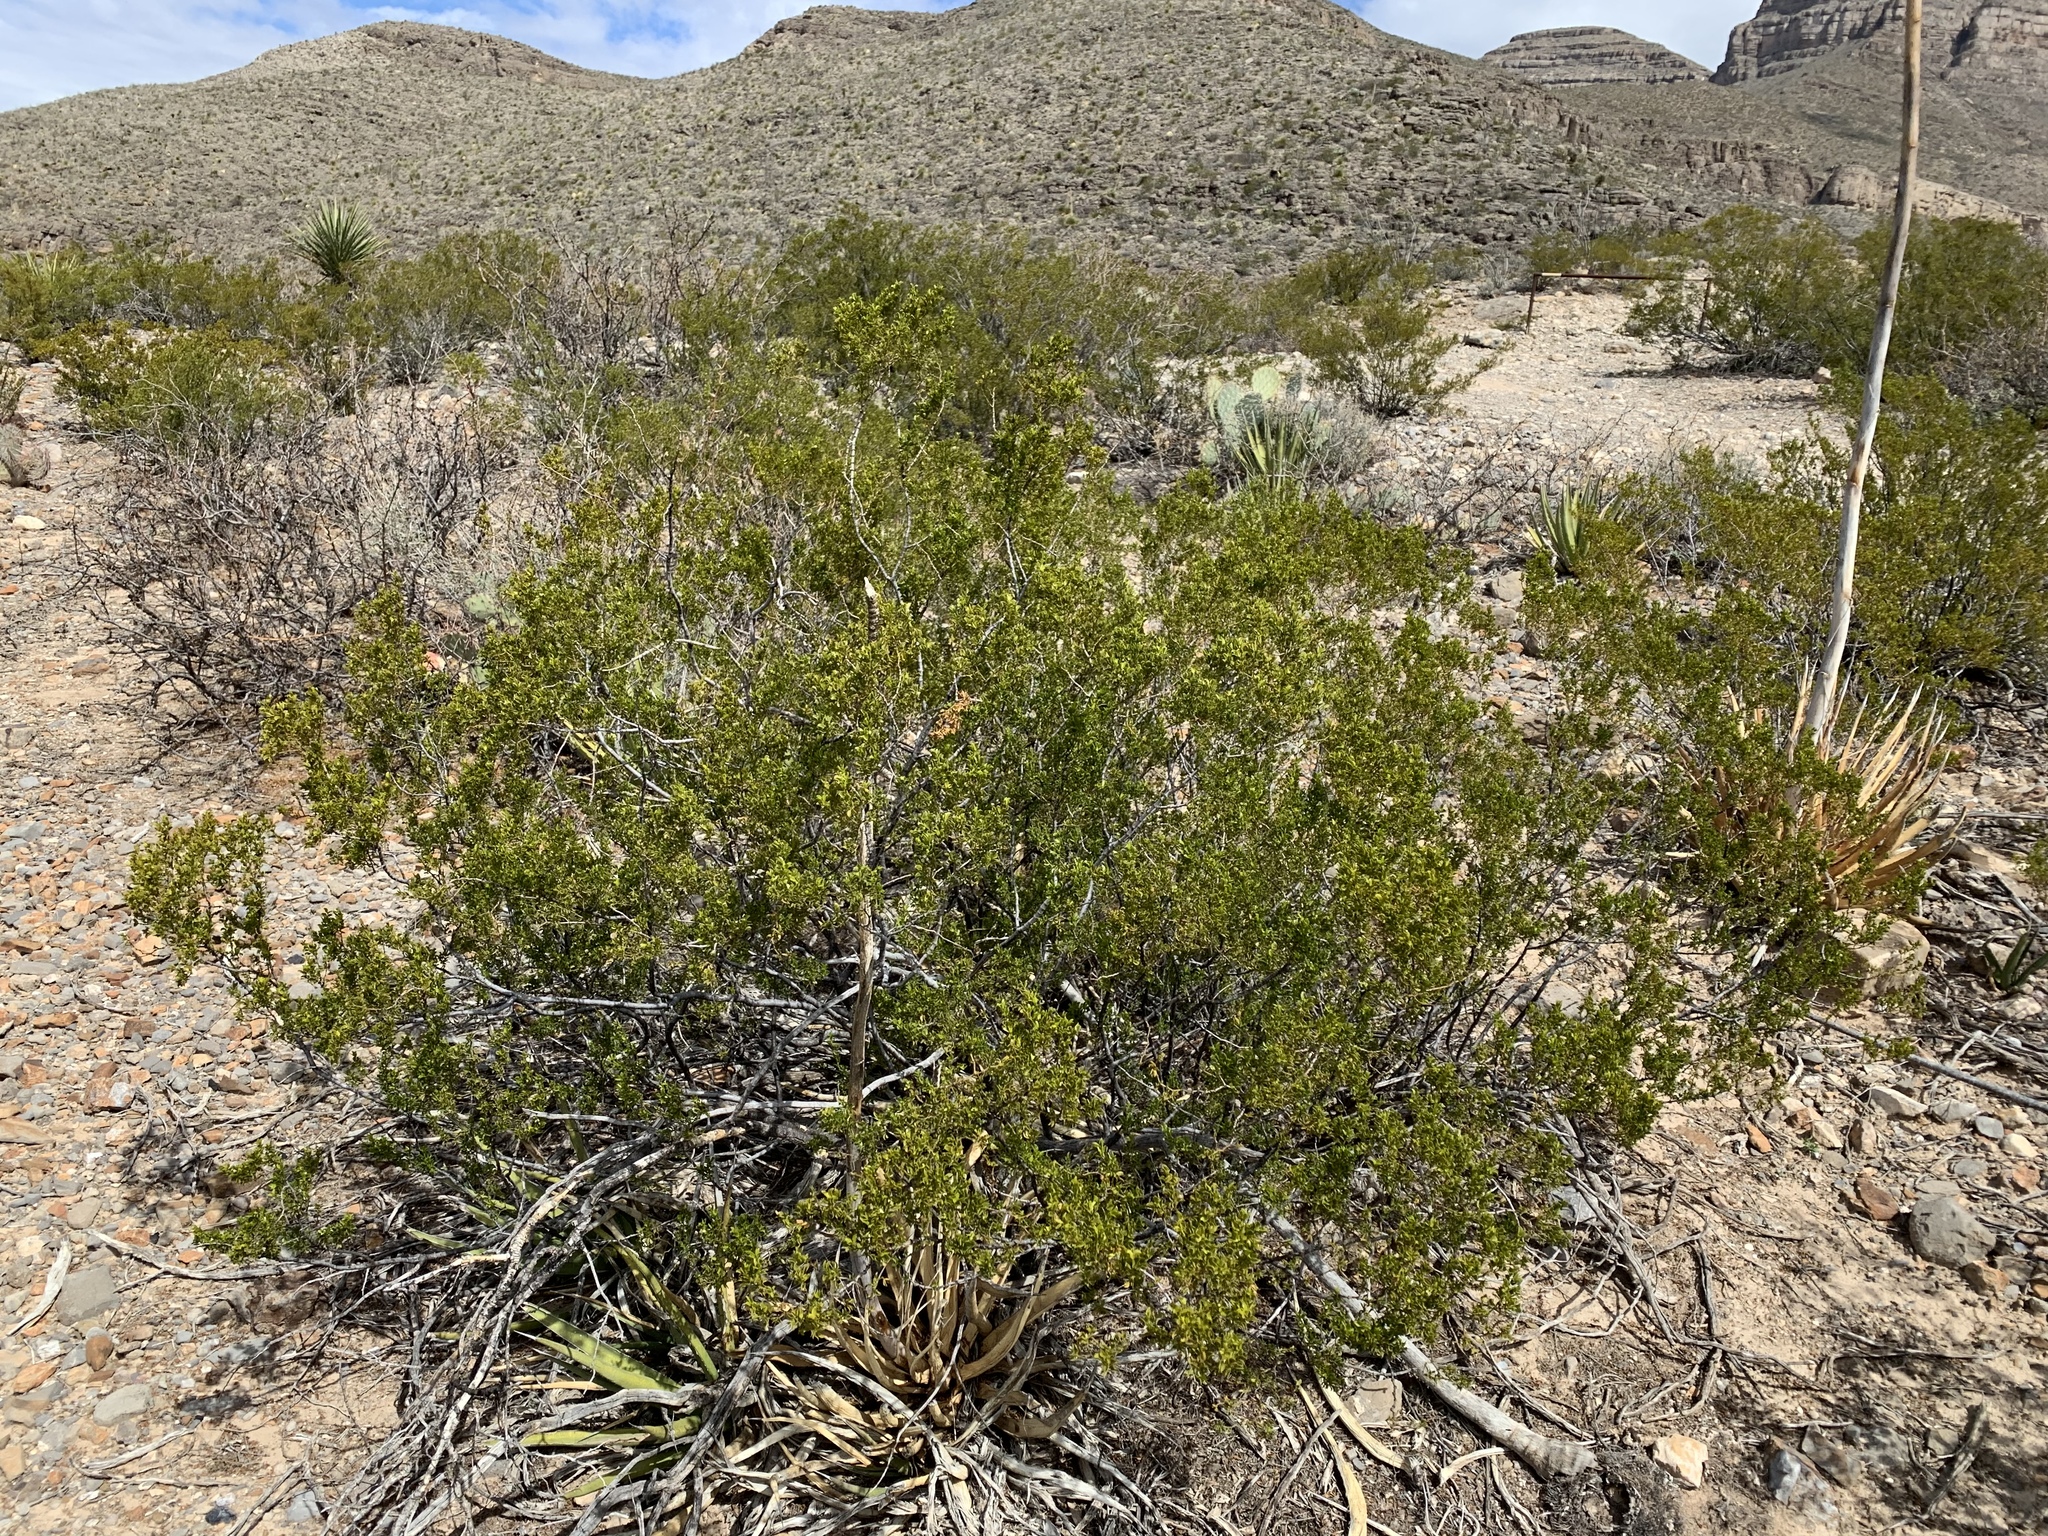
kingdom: Plantae
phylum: Tracheophyta
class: Magnoliopsida
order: Zygophyllales
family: Zygophyllaceae
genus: Larrea
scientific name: Larrea tridentata
